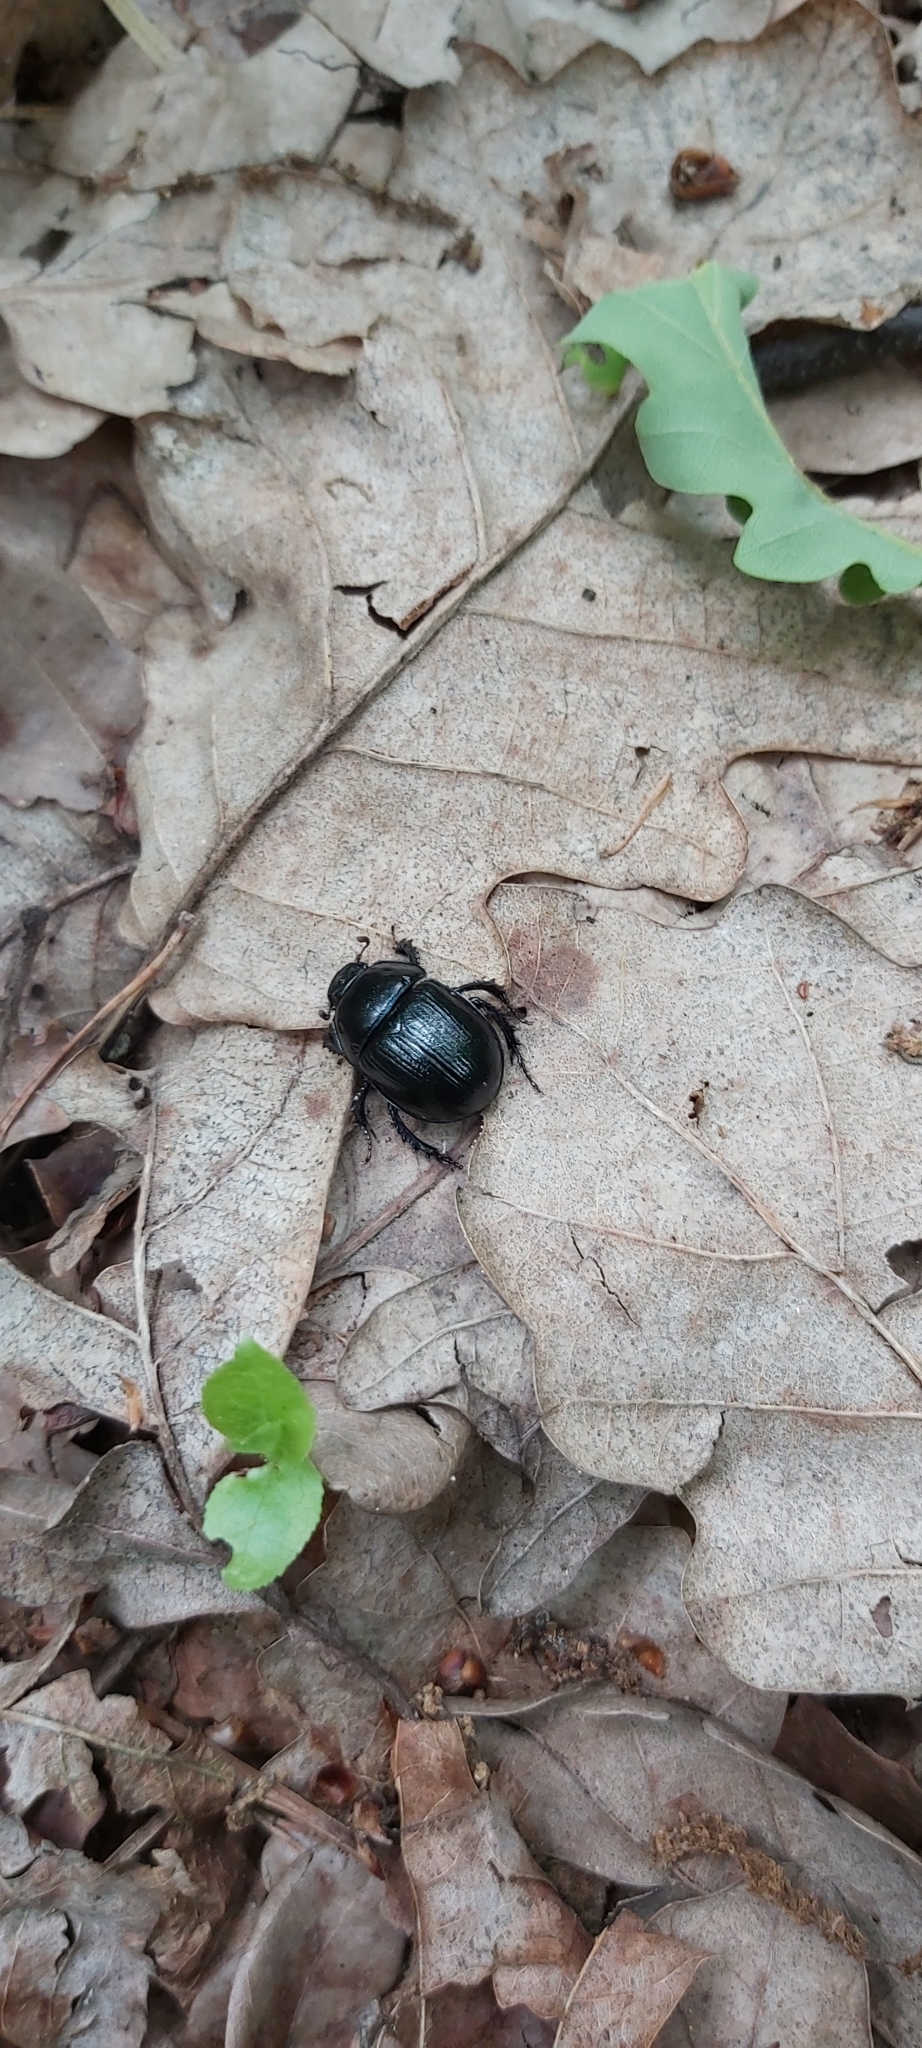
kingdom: Animalia
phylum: Arthropoda
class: Insecta
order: Coleoptera
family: Geotrupidae
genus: Anoplotrupes
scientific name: Anoplotrupes stercorosus
